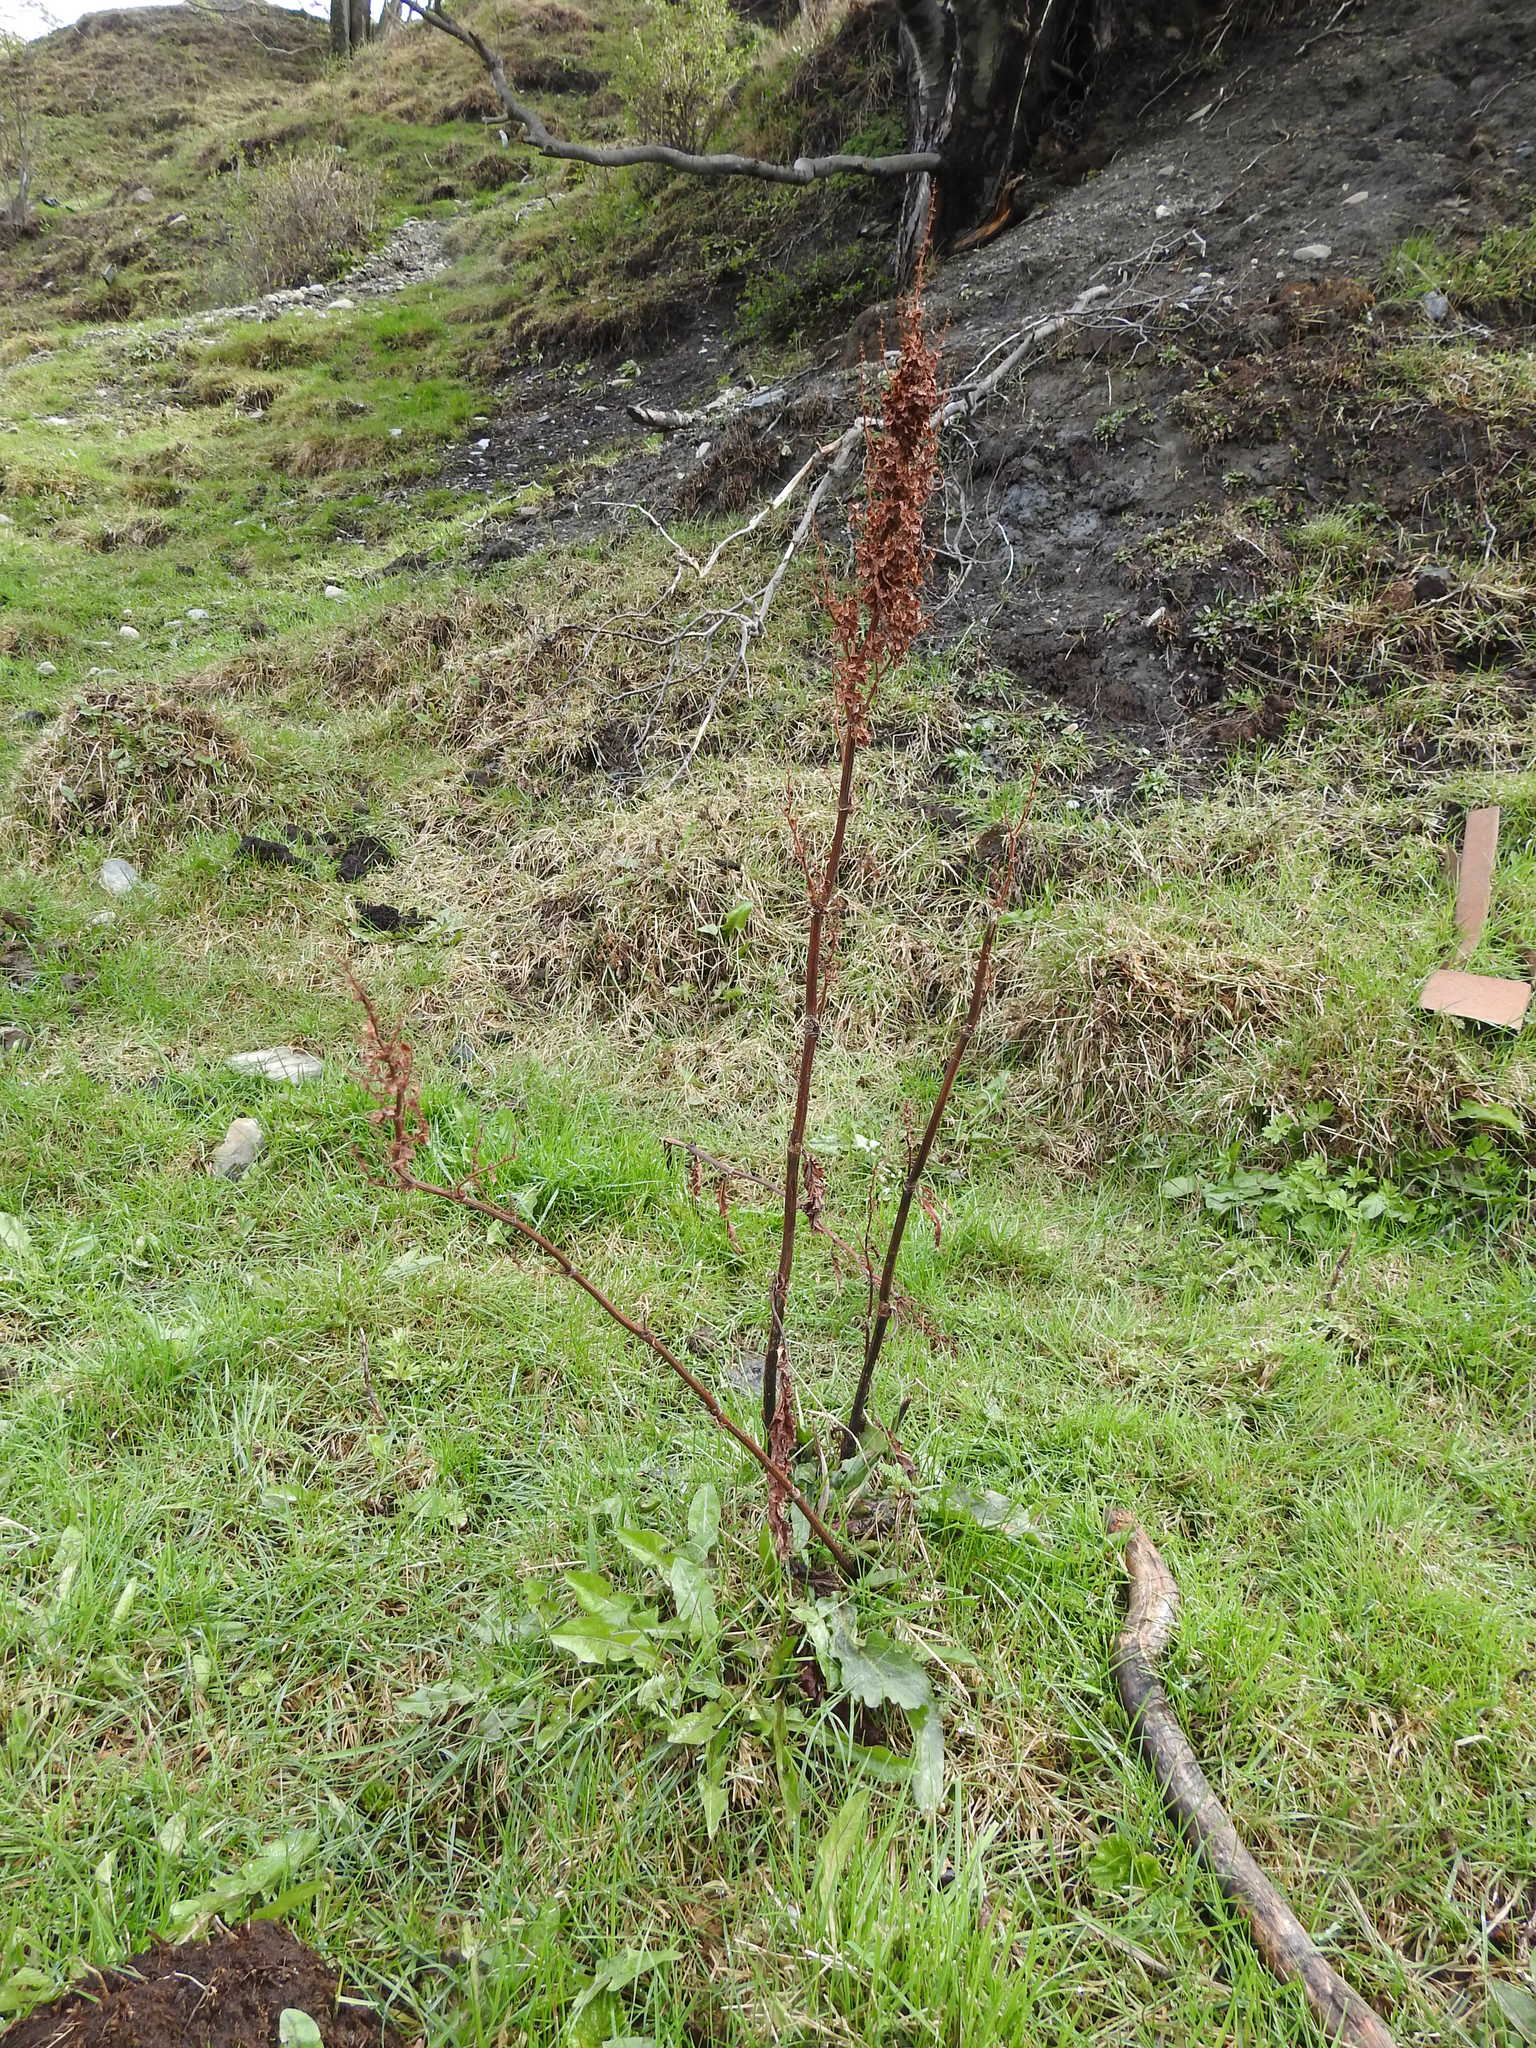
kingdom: Plantae
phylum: Tracheophyta
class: Magnoliopsida
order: Caryophyllales
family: Polygonaceae
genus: Rumex
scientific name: Rumex crispus
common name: Curled dock
